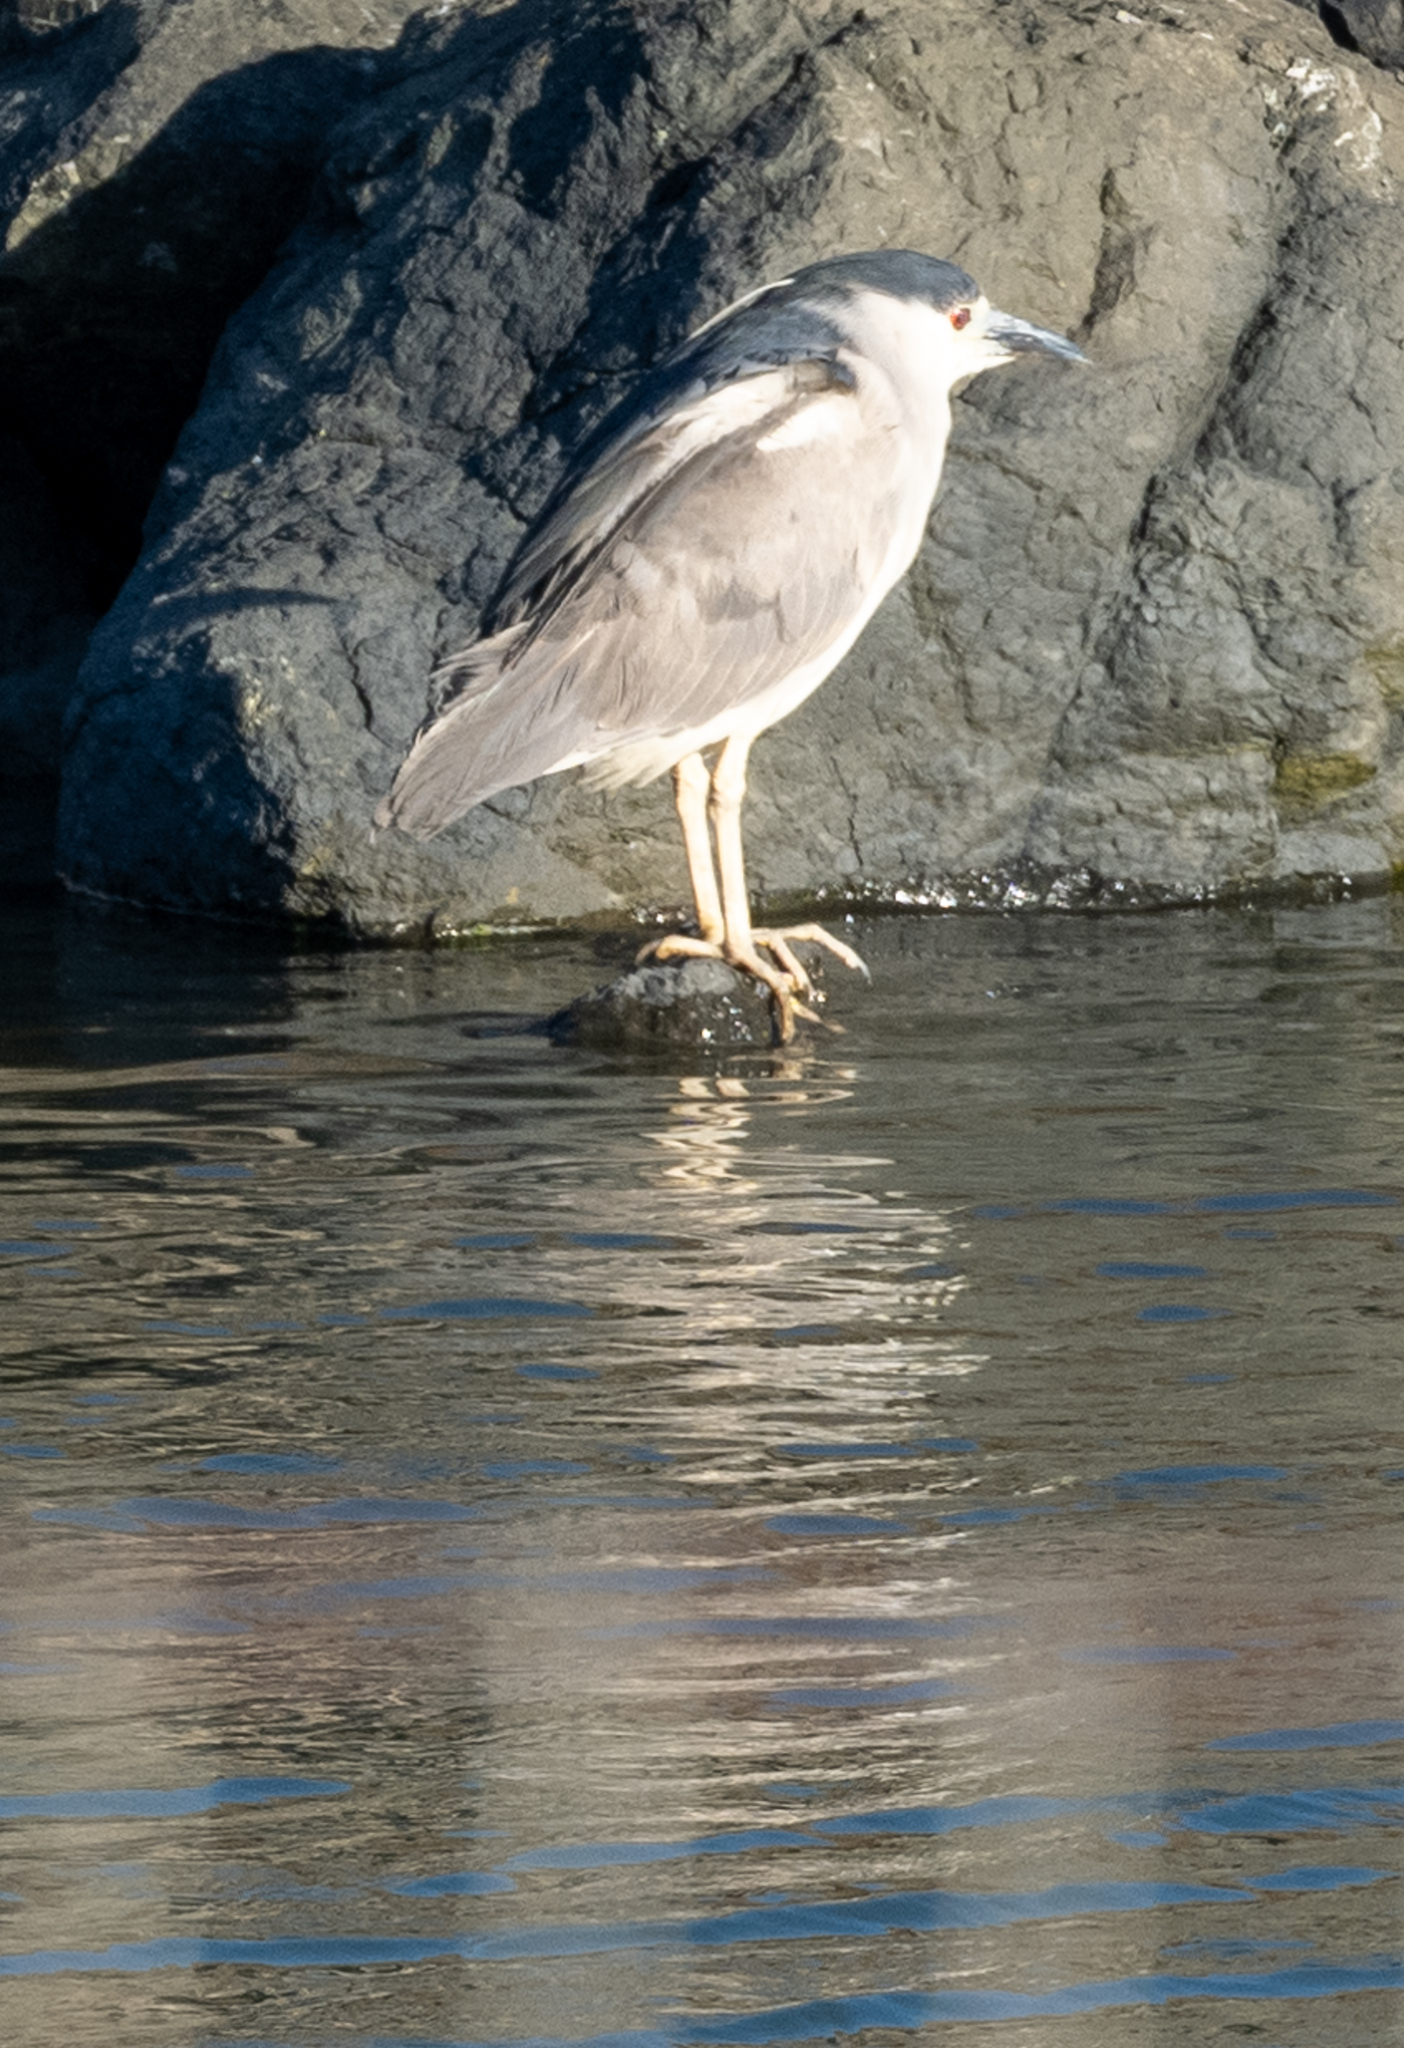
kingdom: Animalia
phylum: Chordata
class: Aves
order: Pelecaniformes
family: Ardeidae
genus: Nycticorax
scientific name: Nycticorax nycticorax
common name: Black-crowned night heron
